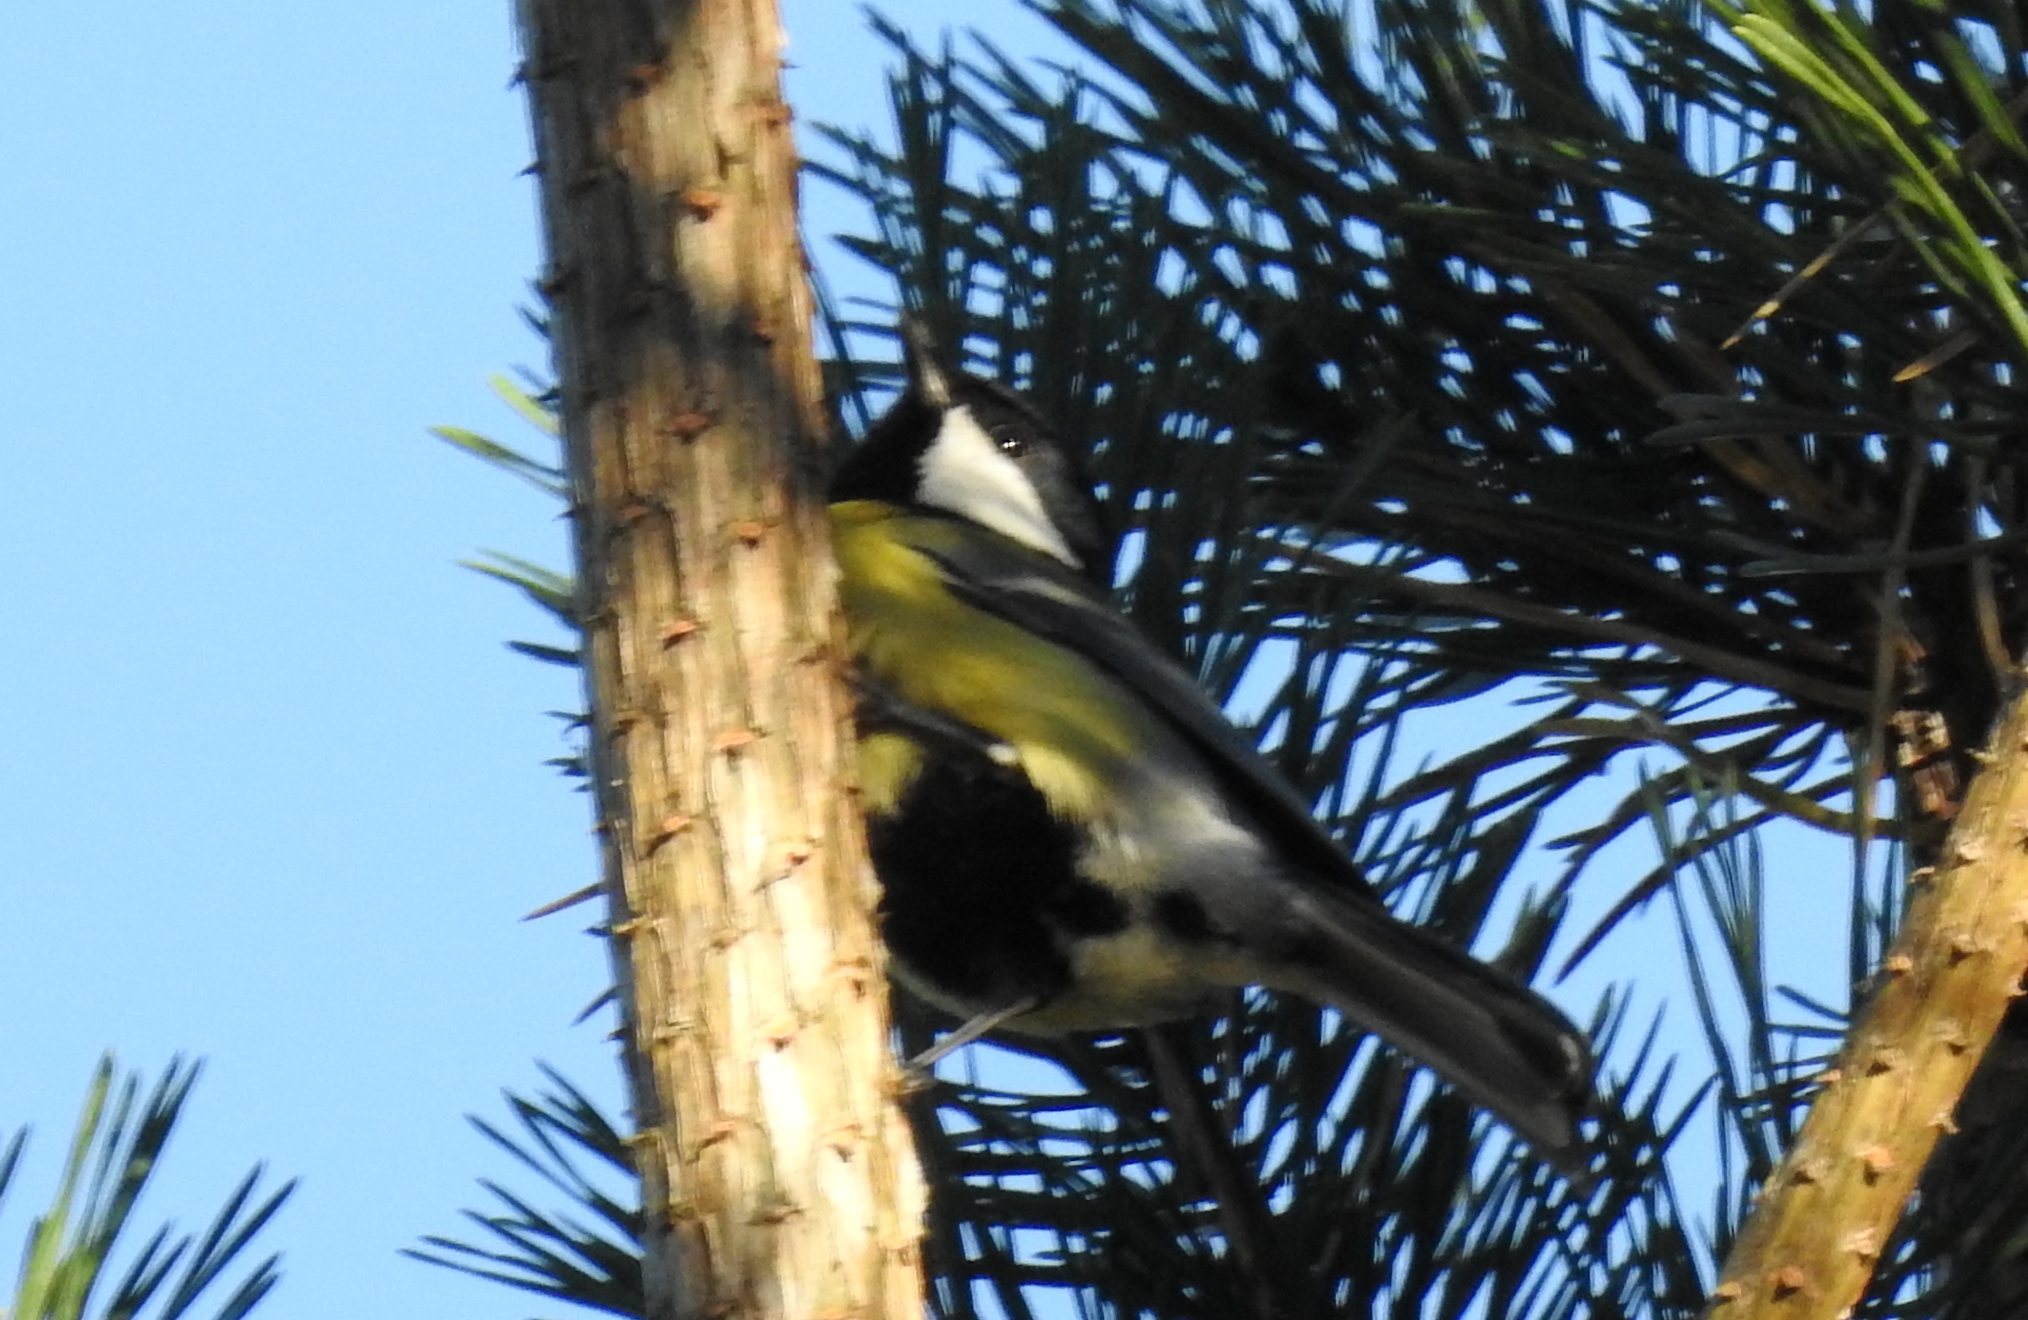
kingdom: Animalia
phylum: Chordata
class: Aves
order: Passeriformes
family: Paridae
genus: Parus
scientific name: Parus major
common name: Great tit
